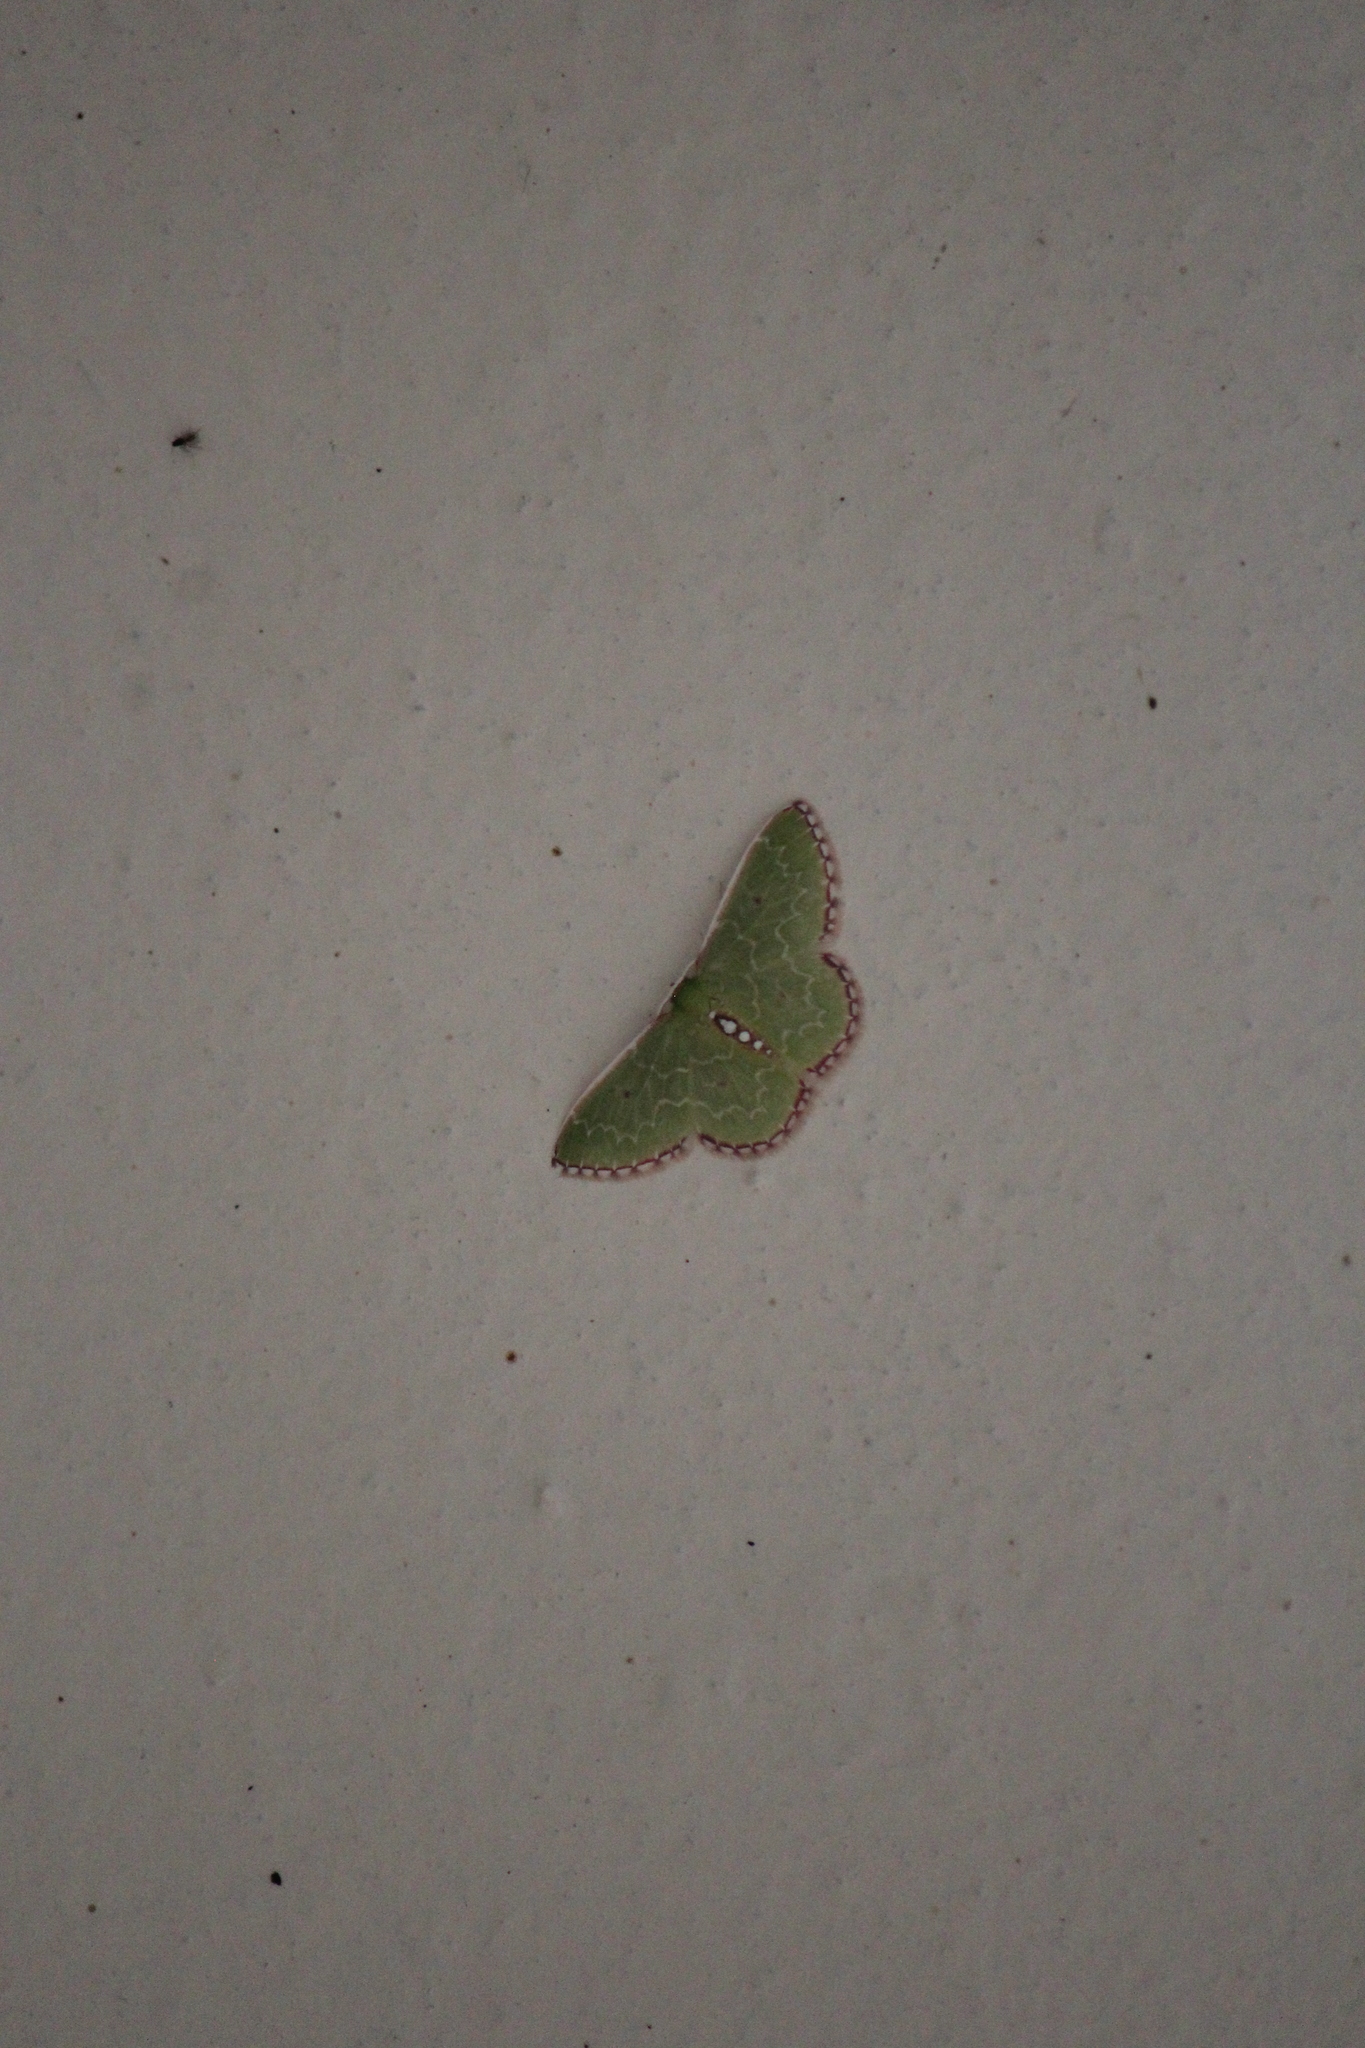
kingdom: Animalia
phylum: Arthropoda
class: Insecta
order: Lepidoptera
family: Geometridae
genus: Nemoria
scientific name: Nemoria lixaria
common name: Red-bordered emerald
